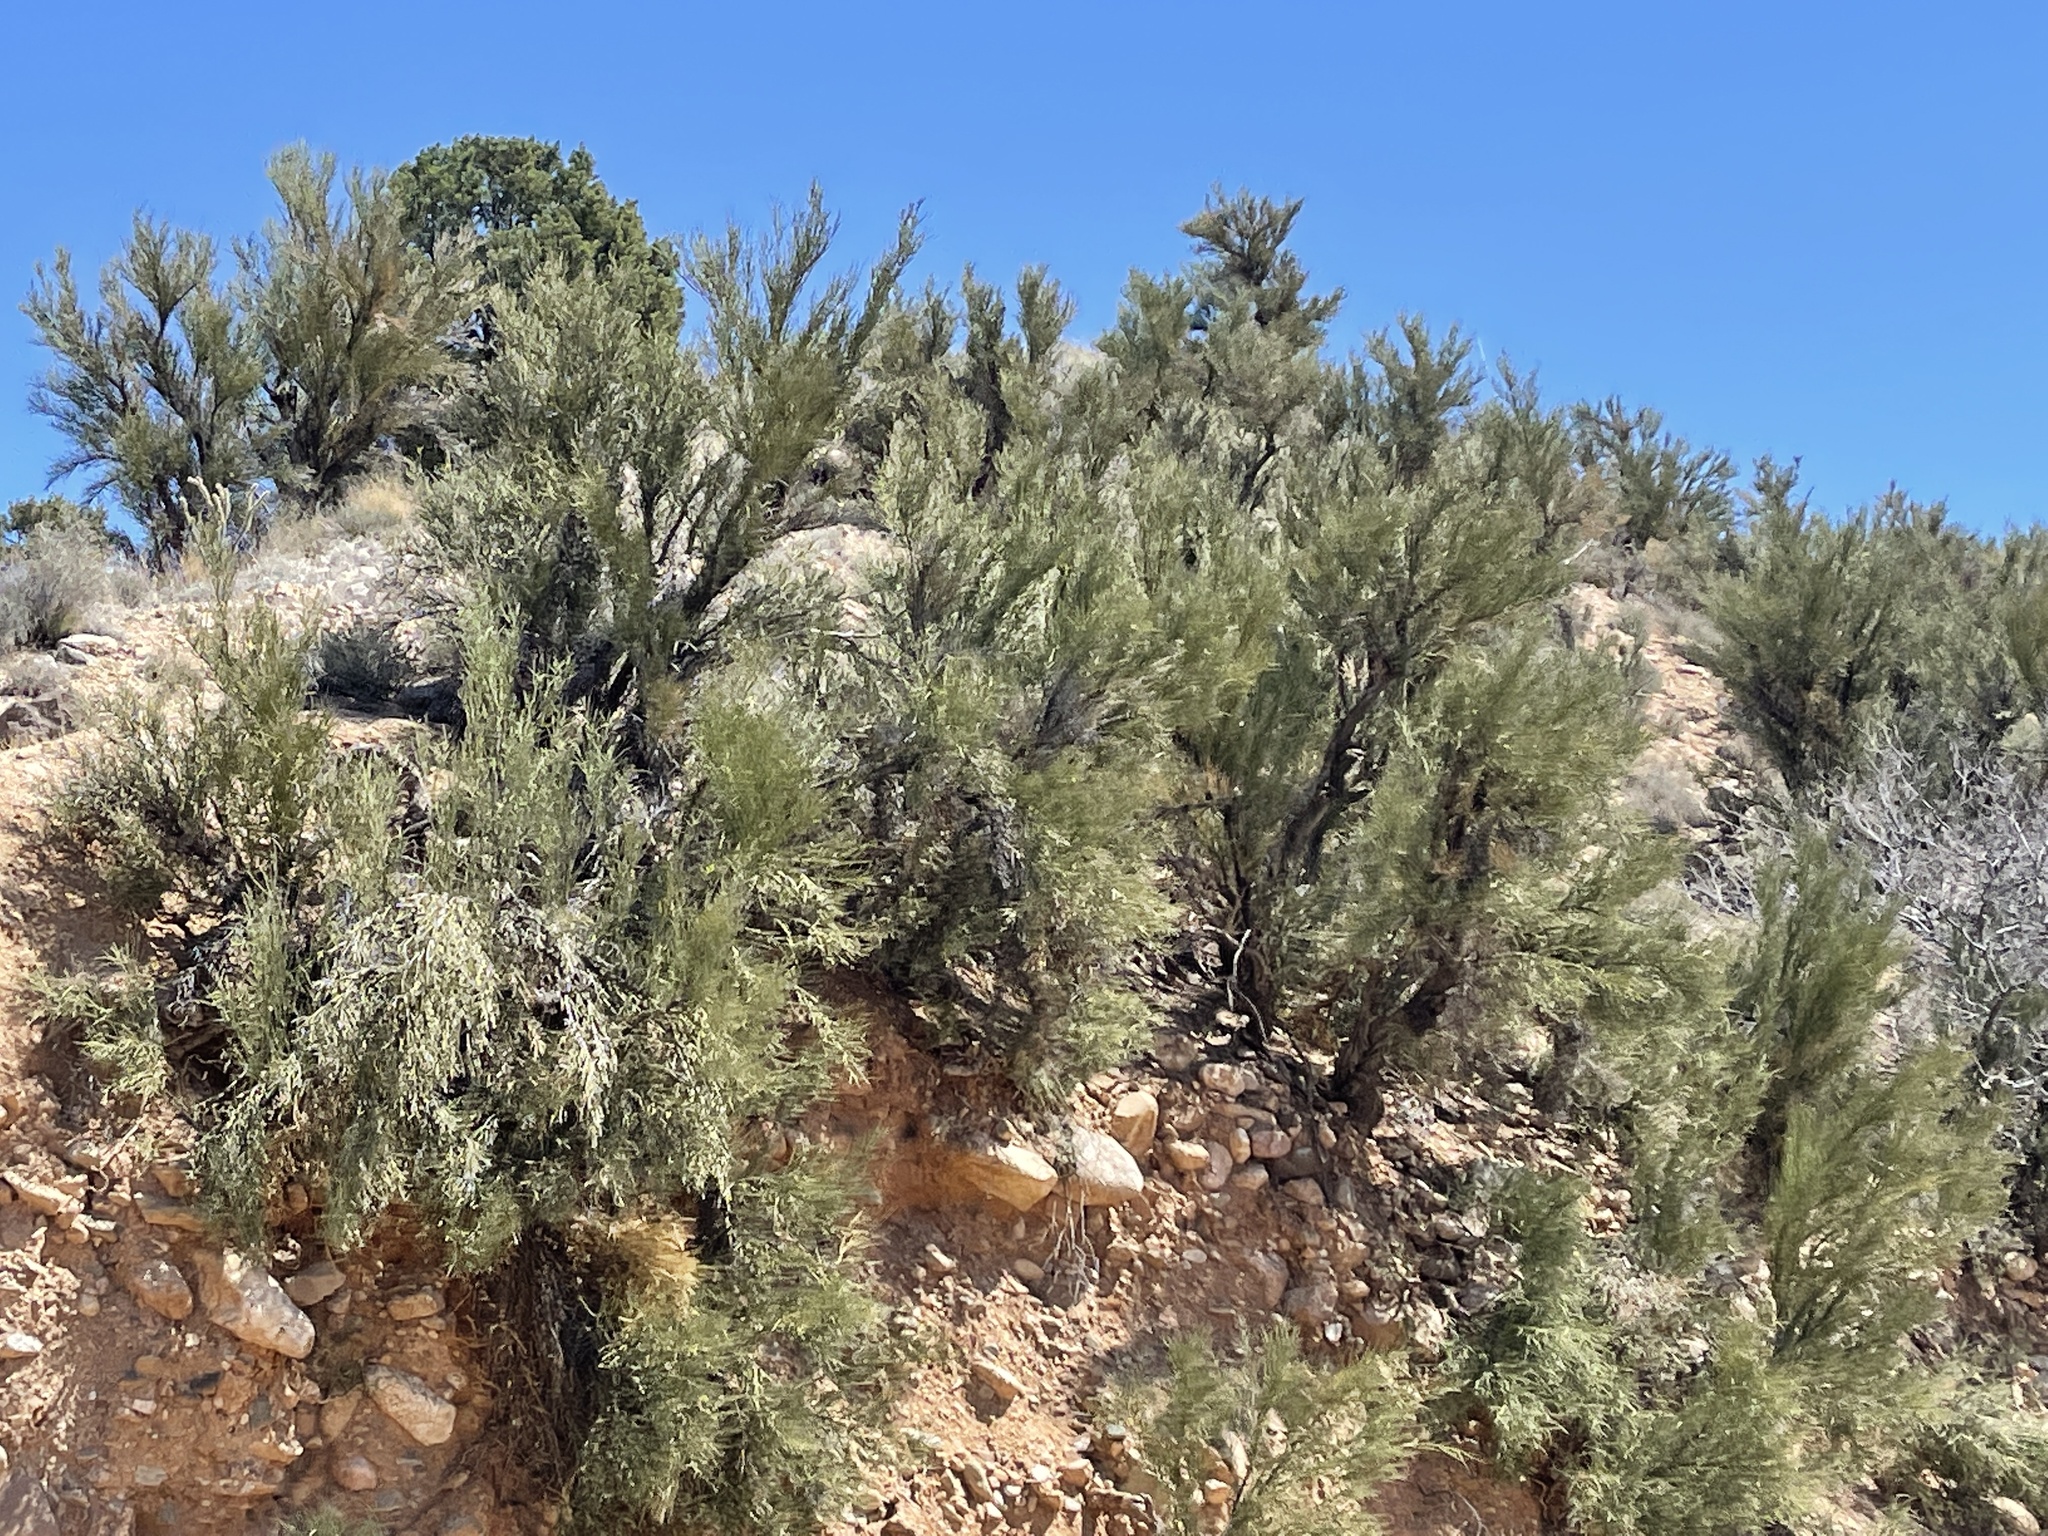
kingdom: Plantae
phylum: Tracheophyta
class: Magnoliopsida
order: Celastrales
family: Celastraceae
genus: Canotia
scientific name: Canotia holacantha
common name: Crucifixion thorns
